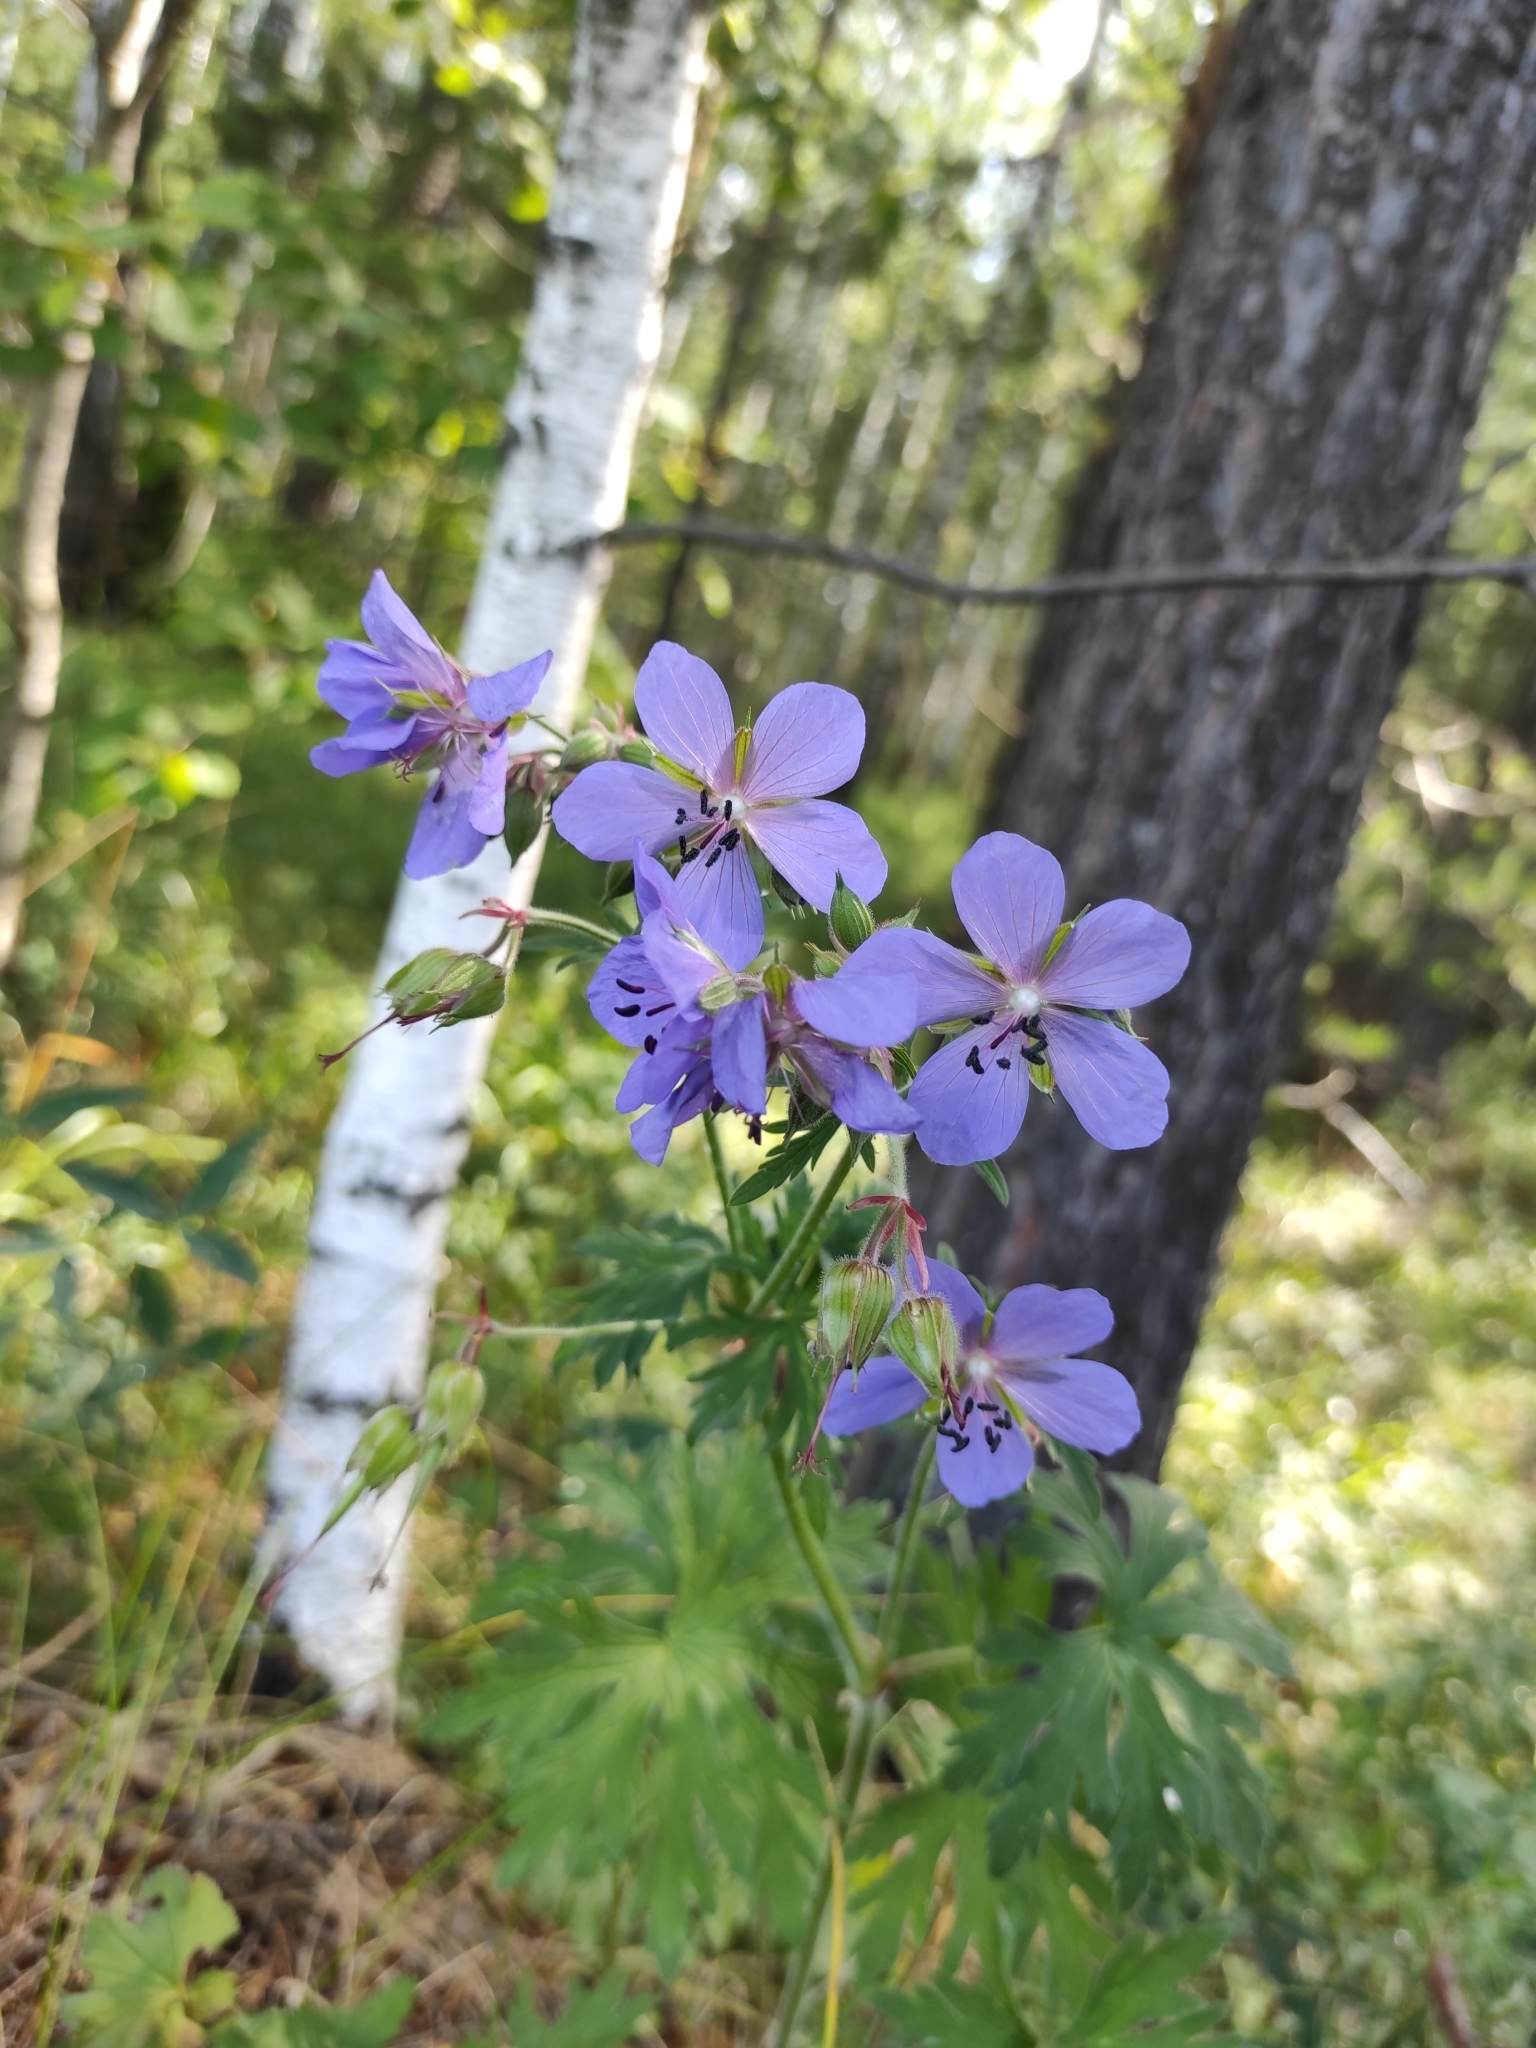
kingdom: Plantae
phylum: Tracheophyta
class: Magnoliopsida
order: Geraniales
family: Geraniaceae
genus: Geranium
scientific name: Geranium pratense
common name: Meadow crane's-bill
